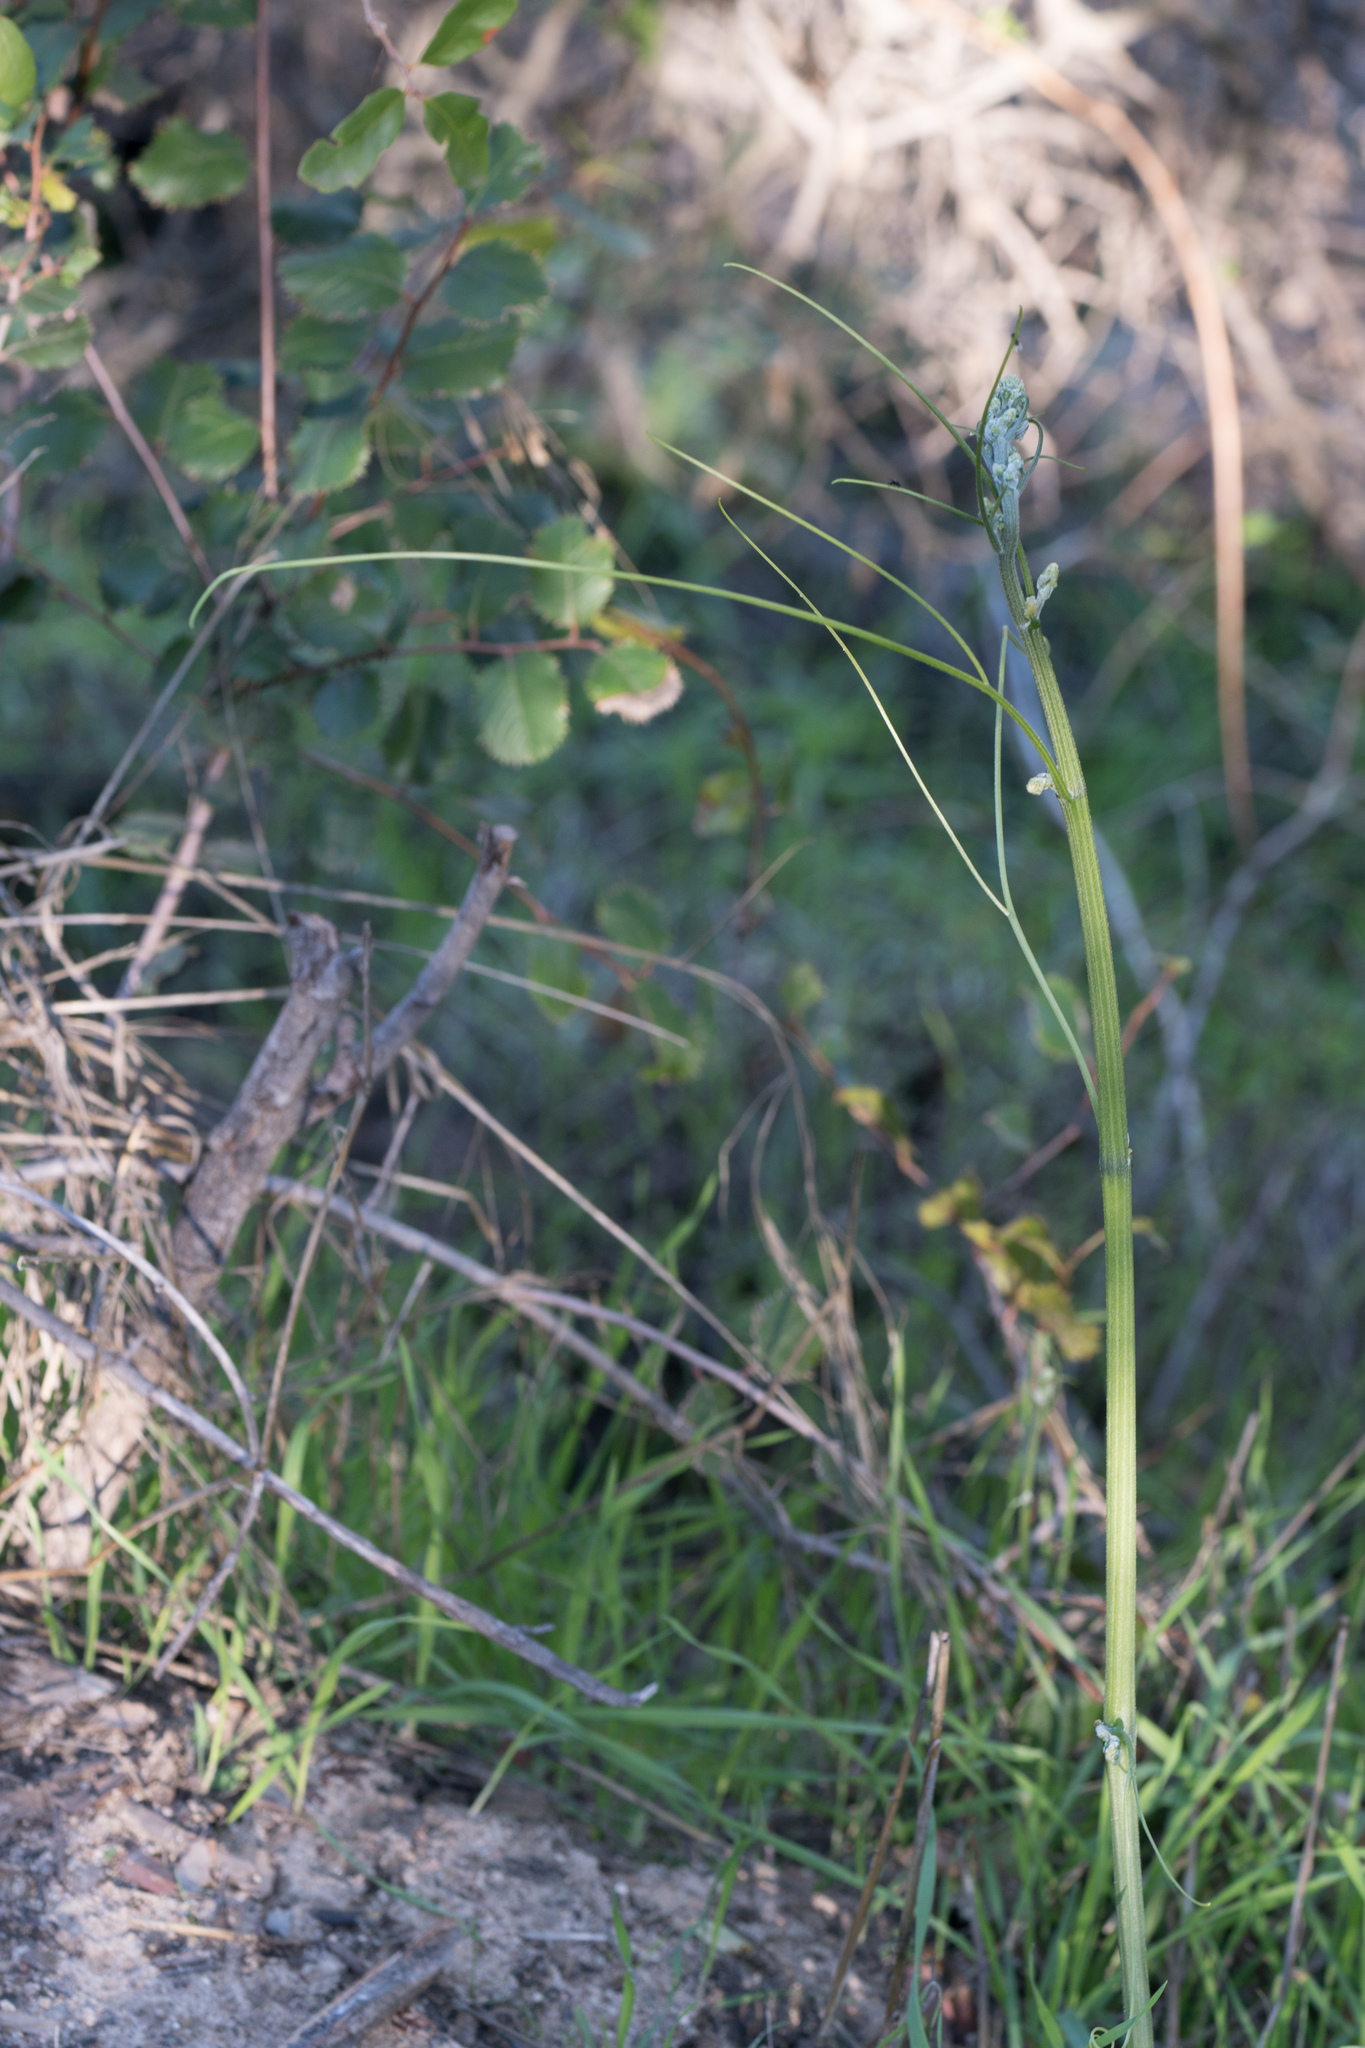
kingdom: Plantae
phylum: Tracheophyta
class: Magnoliopsida
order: Cucurbitales
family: Cucurbitaceae
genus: Marah
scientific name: Marah macrocarpa
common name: Cucamonga manroot
